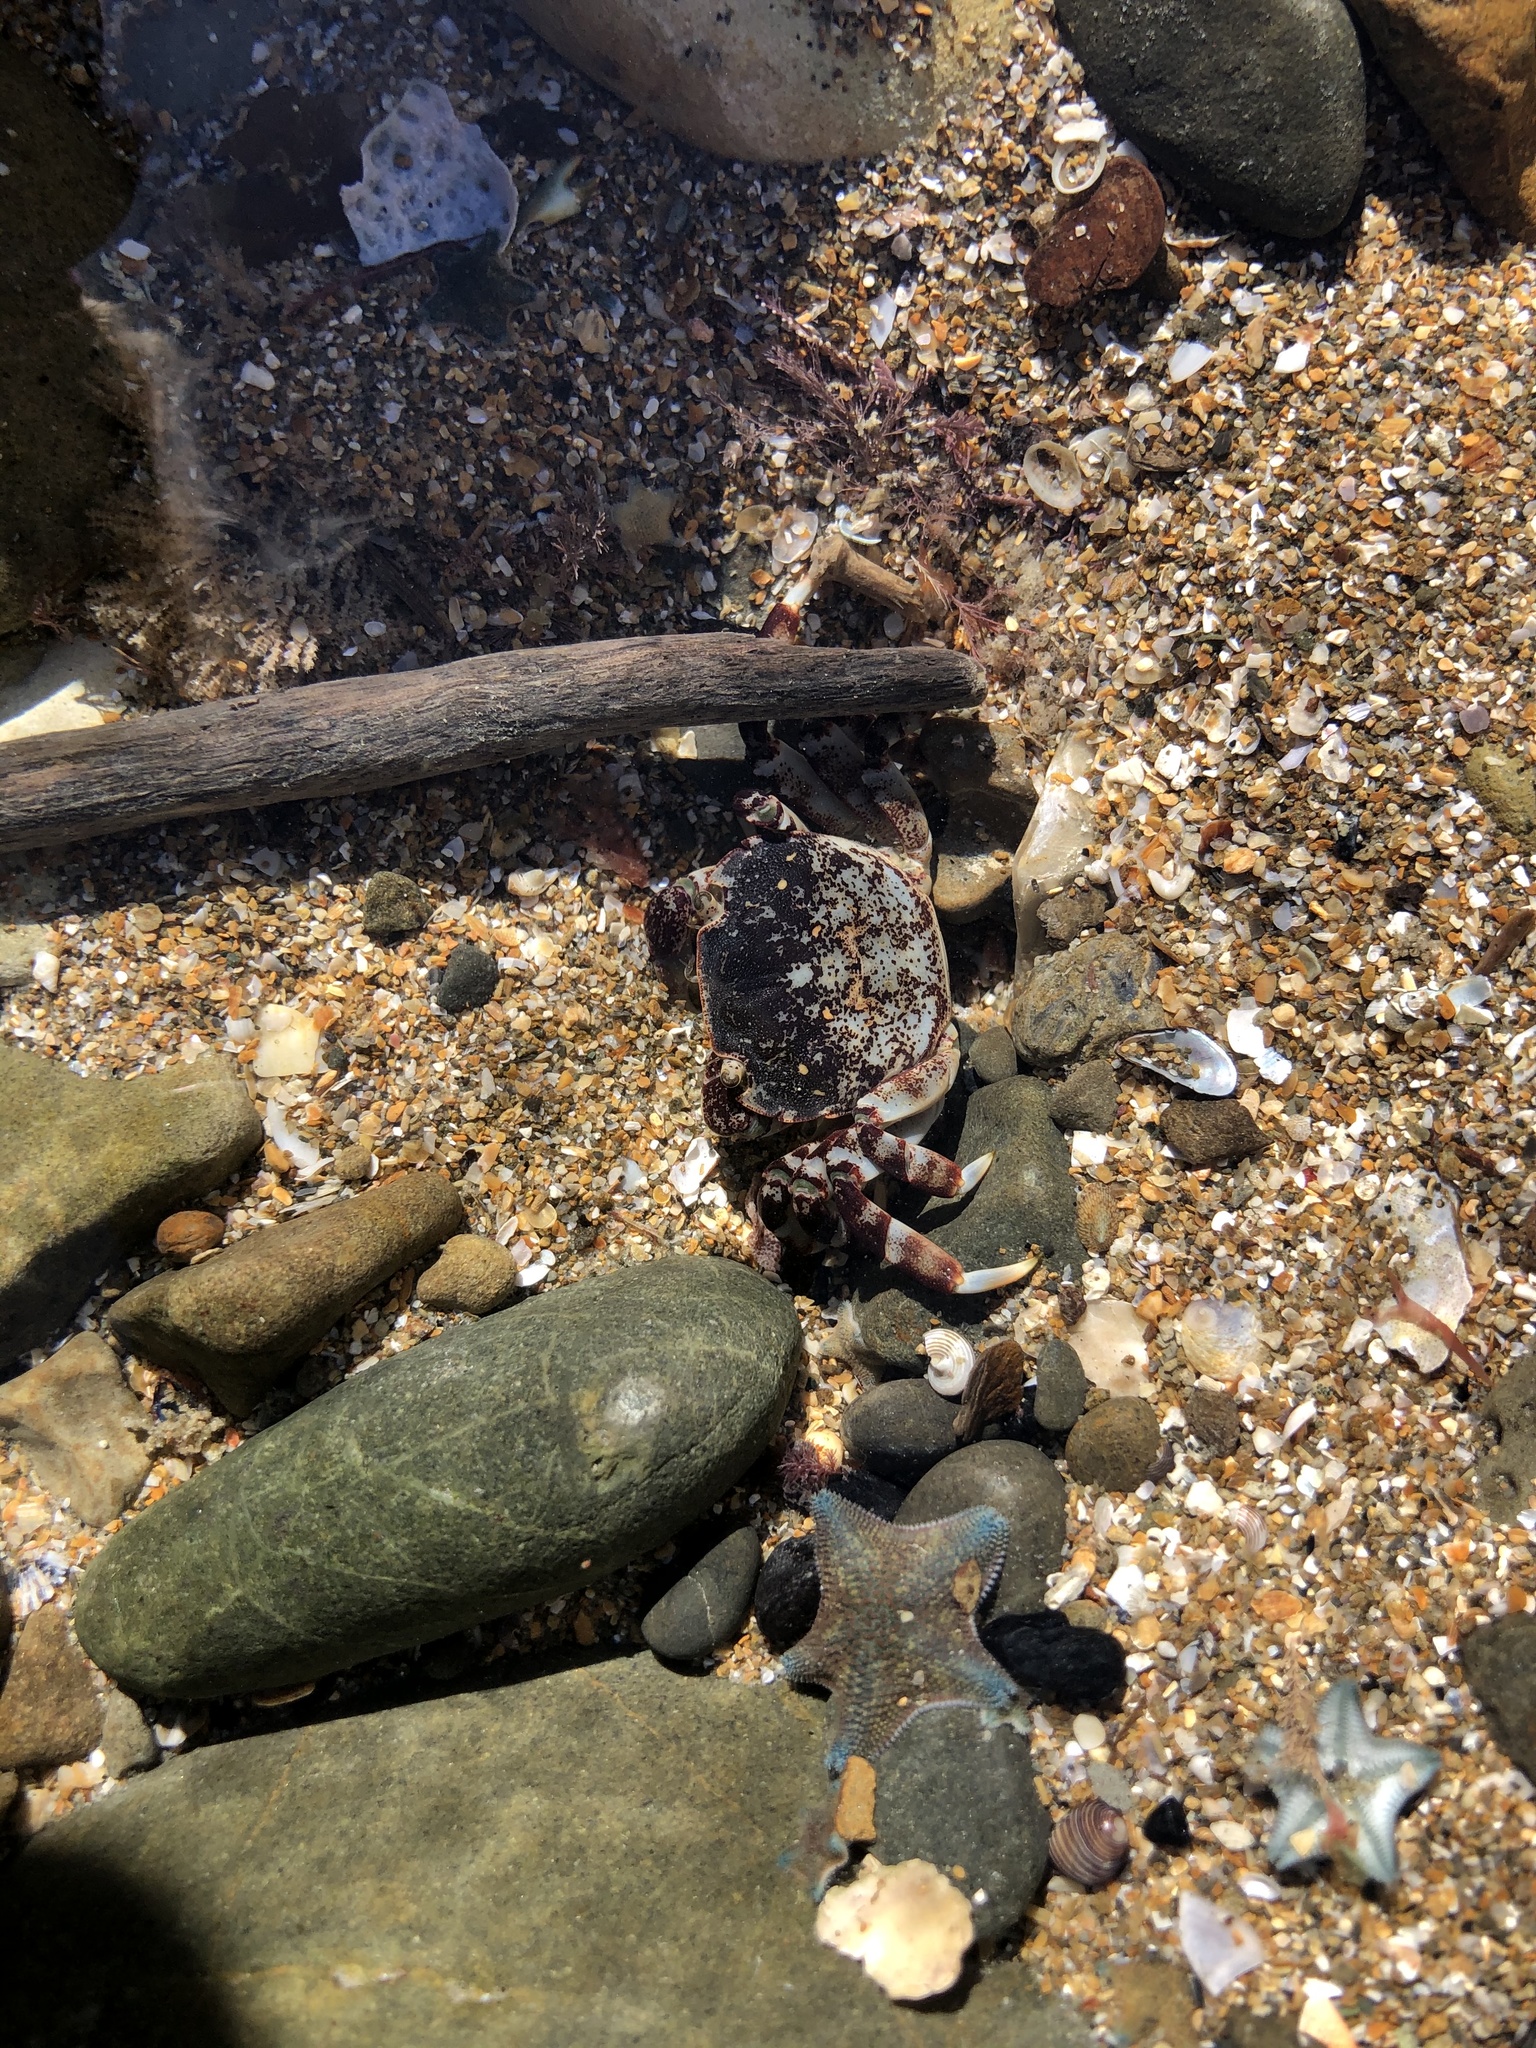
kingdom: Animalia
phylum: Arthropoda
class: Malacostraca
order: Decapoda
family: Varunidae
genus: Hemigrapsus
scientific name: Hemigrapsus sexdentatus
